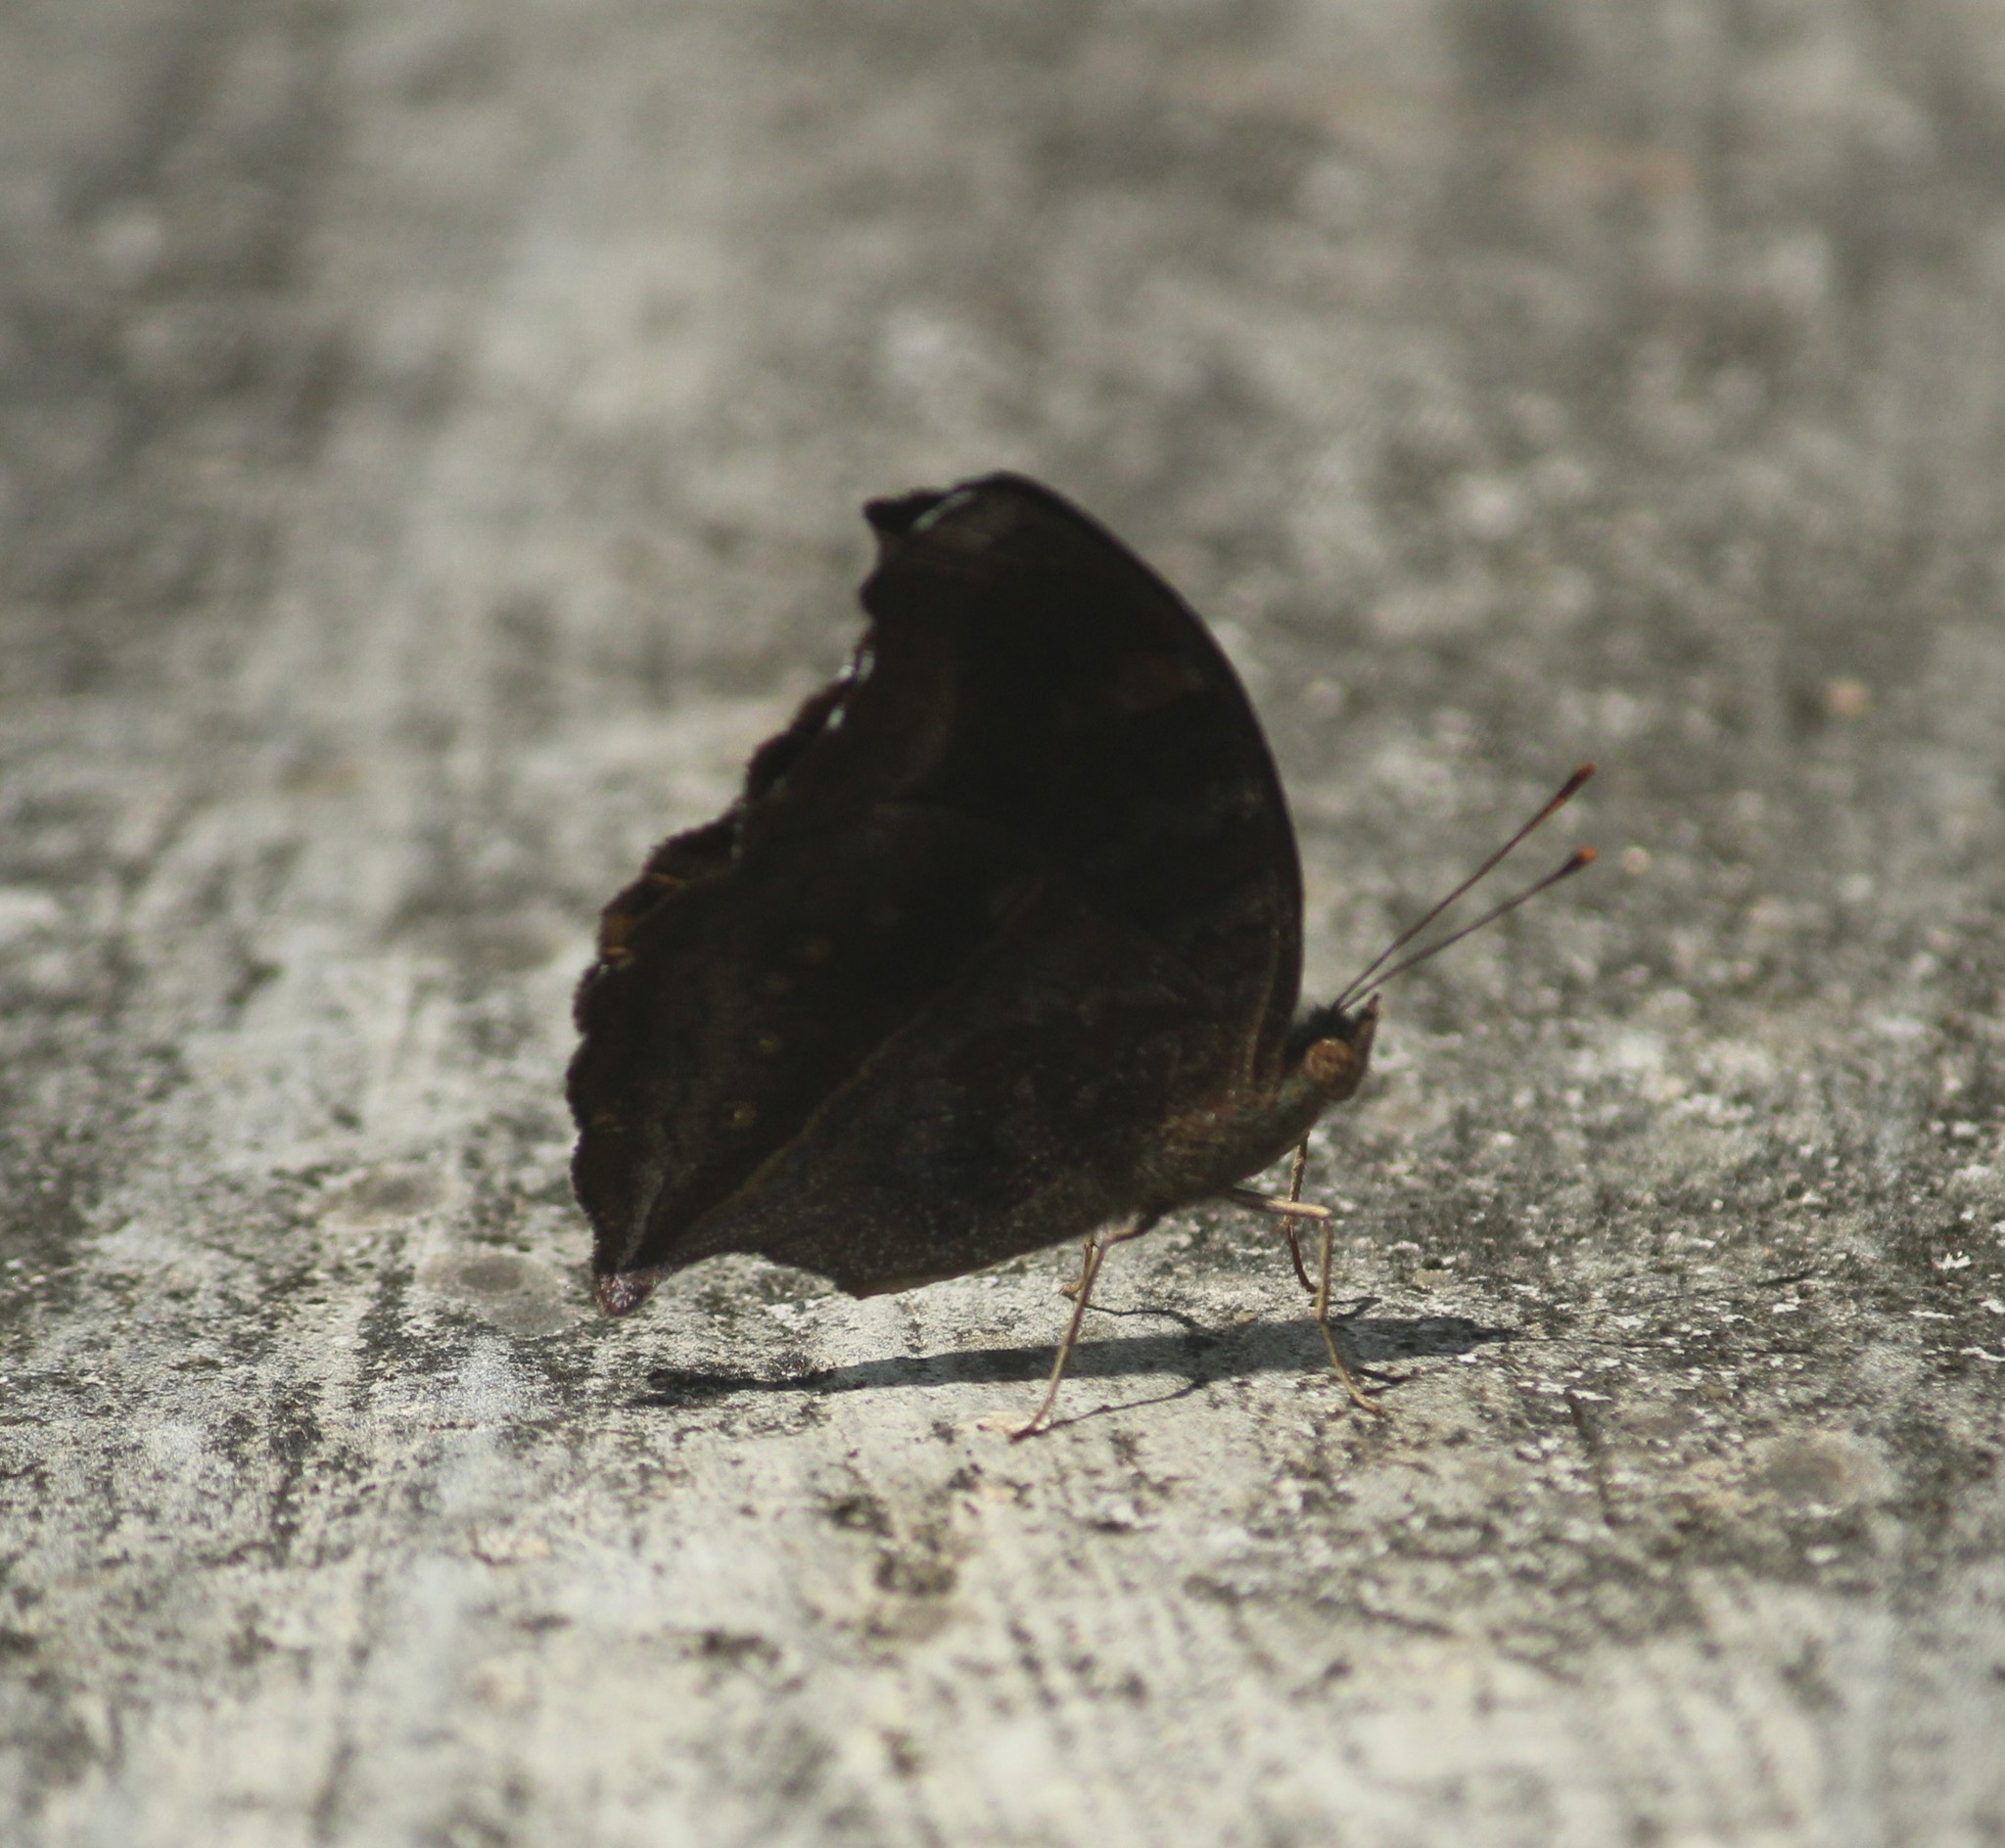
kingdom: Animalia
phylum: Arthropoda
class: Insecta
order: Lepidoptera
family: Nymphalidae
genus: Junonia
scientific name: Junonia iphita
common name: Chocolate pansy
